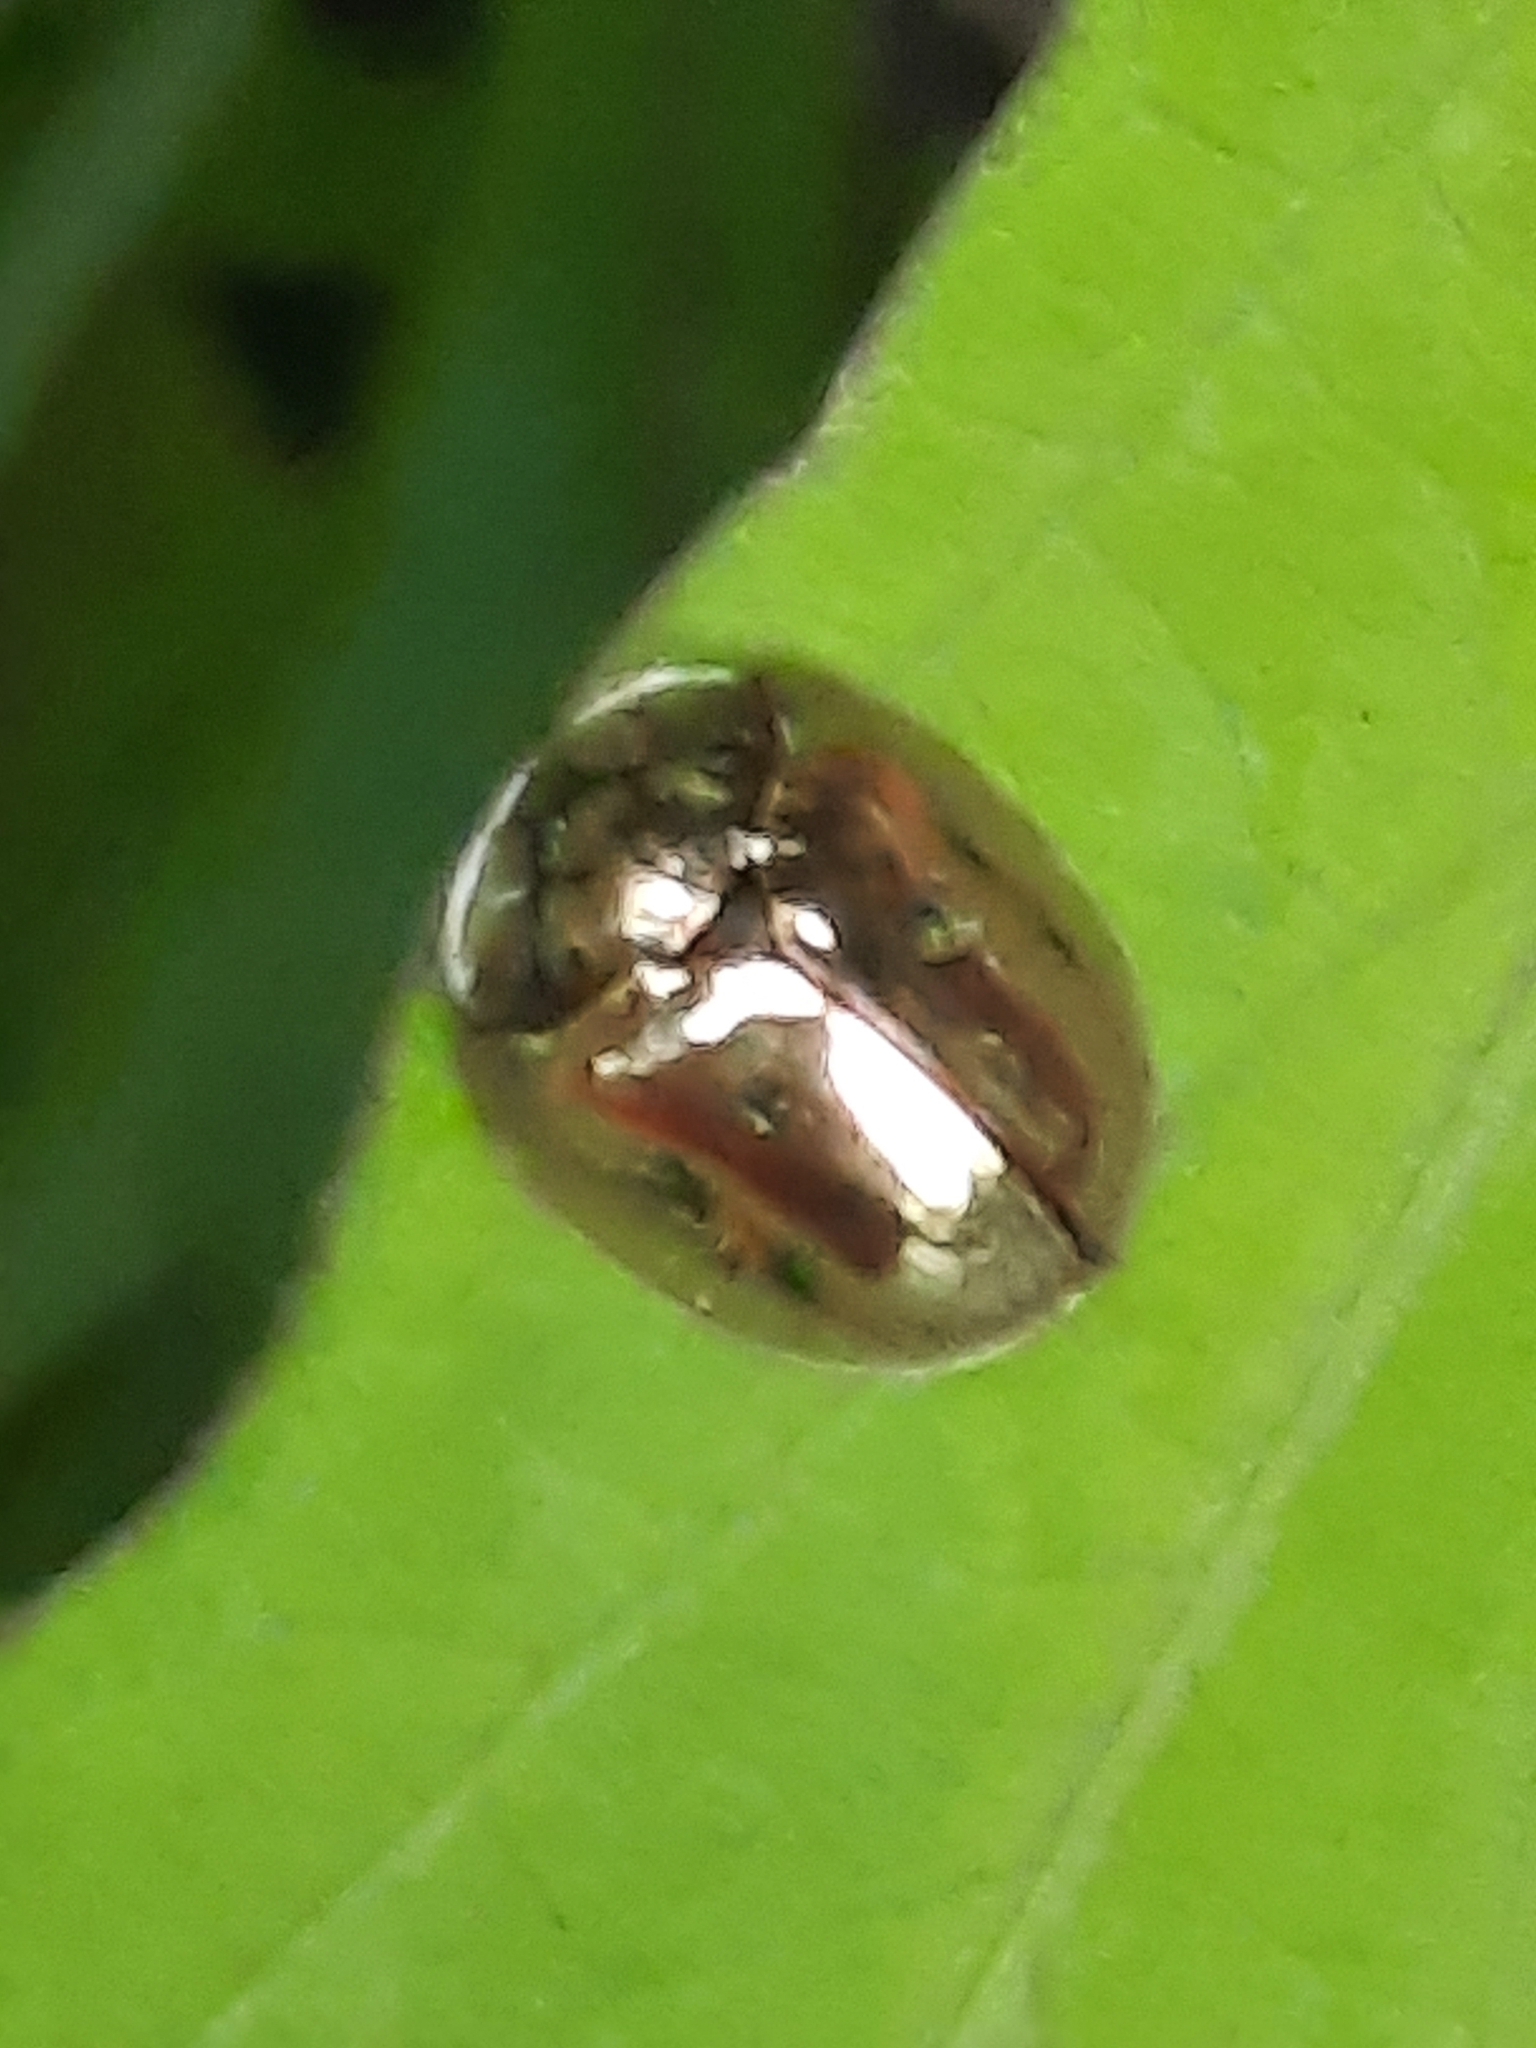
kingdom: Animalia
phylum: Arthropoda
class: Insecta
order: Coleoptera
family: Chrysomelidae
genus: Charidotella
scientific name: Charidotella sexpunctata
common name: Golden tortoise beetle
